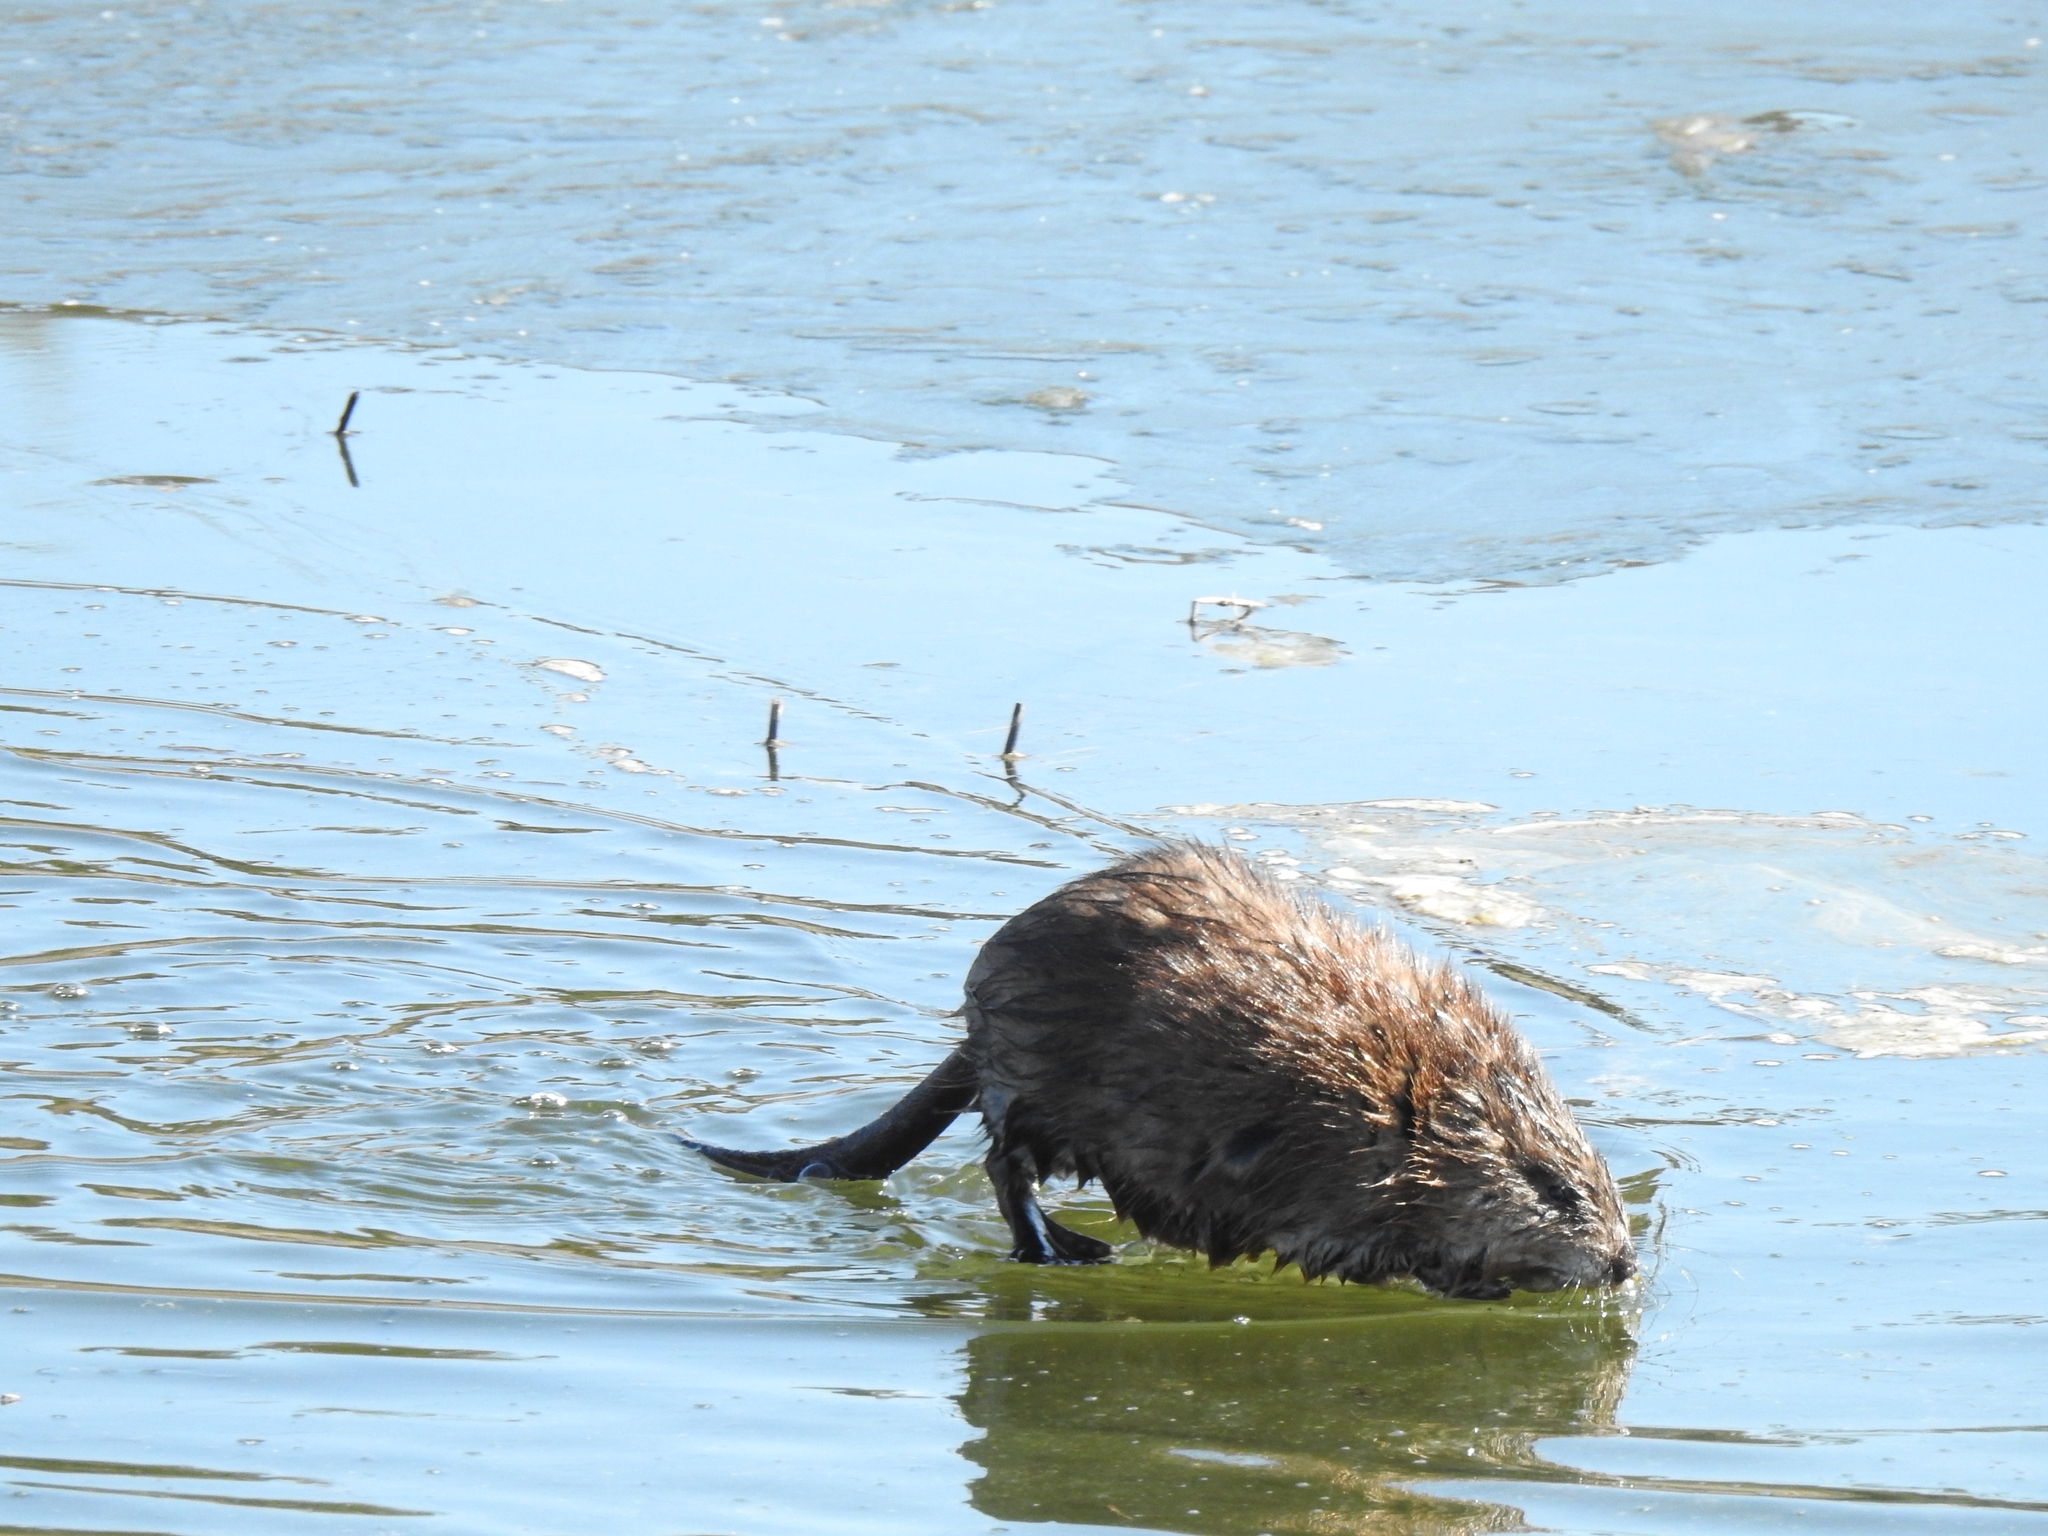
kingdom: Animalia
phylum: Chordata
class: Mammalia
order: Rodentia
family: Cricetidae
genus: Ondatra
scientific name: Ondatra zibethicus
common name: Muskrat
